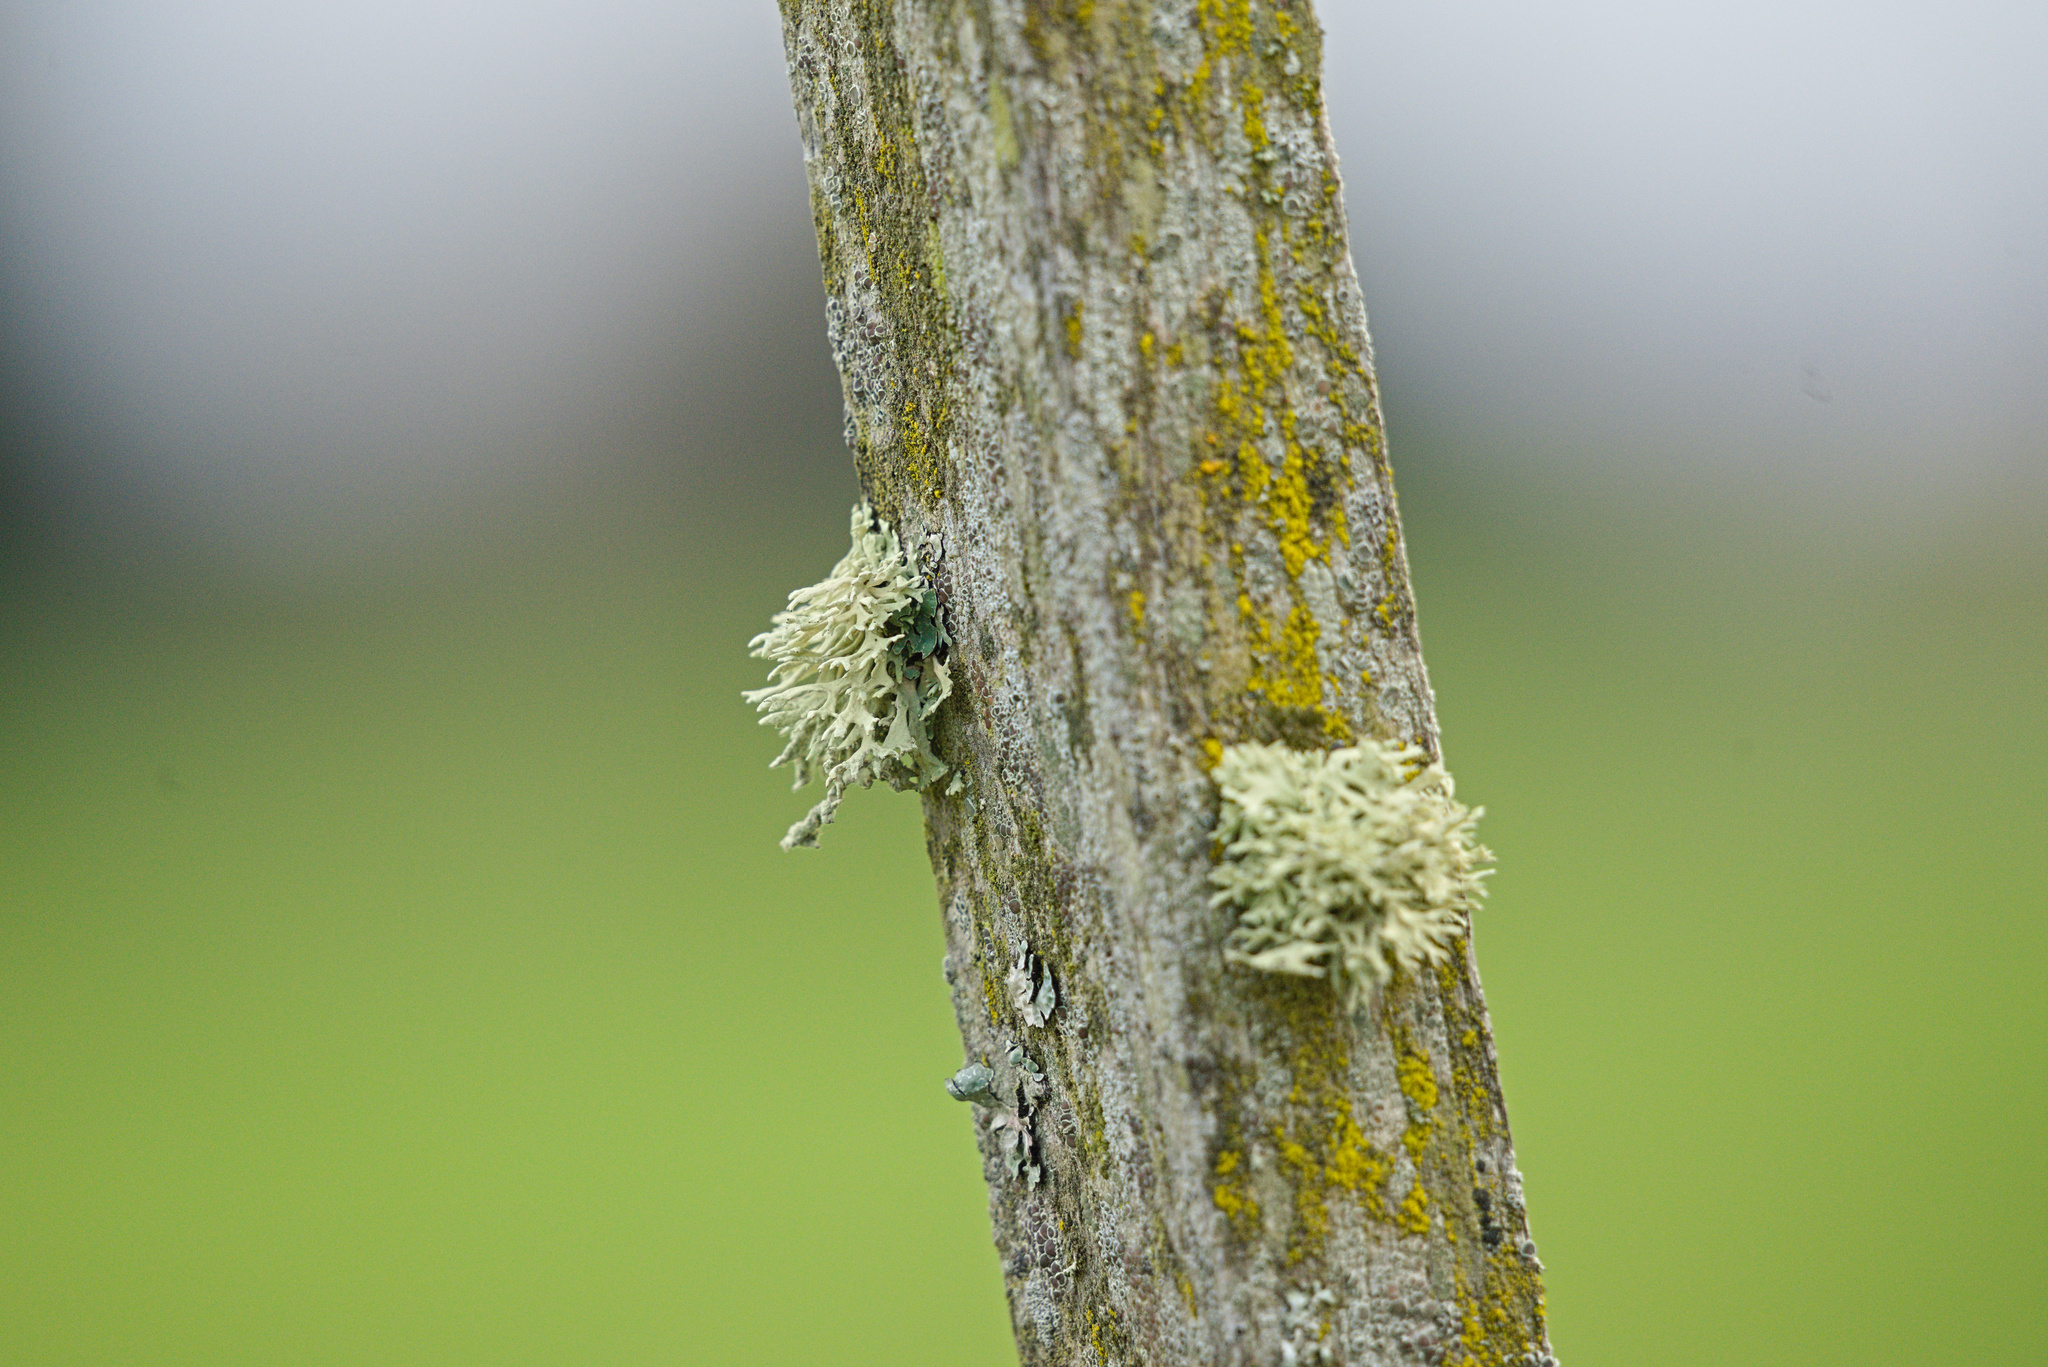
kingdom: Fungi
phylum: Ascomycota
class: Lecanoromycetes
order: Lecanorales
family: Parmeliaceae
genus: Evernia
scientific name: Evernia prunastri
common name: Oak moss
